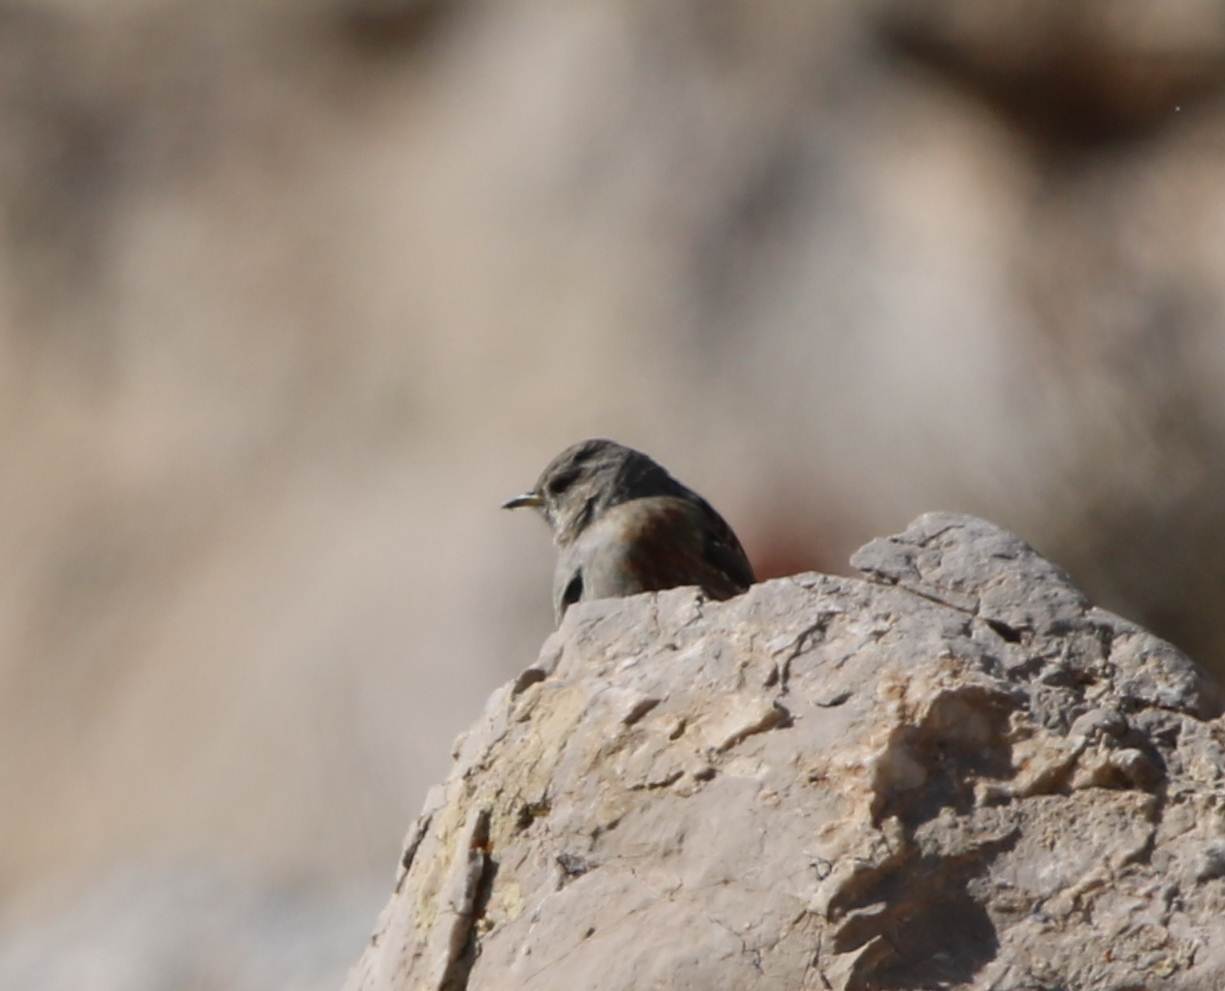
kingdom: Animalia
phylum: Chordata
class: Aves
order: Passeriformes
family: Prunellidae
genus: Prunella
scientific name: Prunella collaris
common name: Alpine accentor
